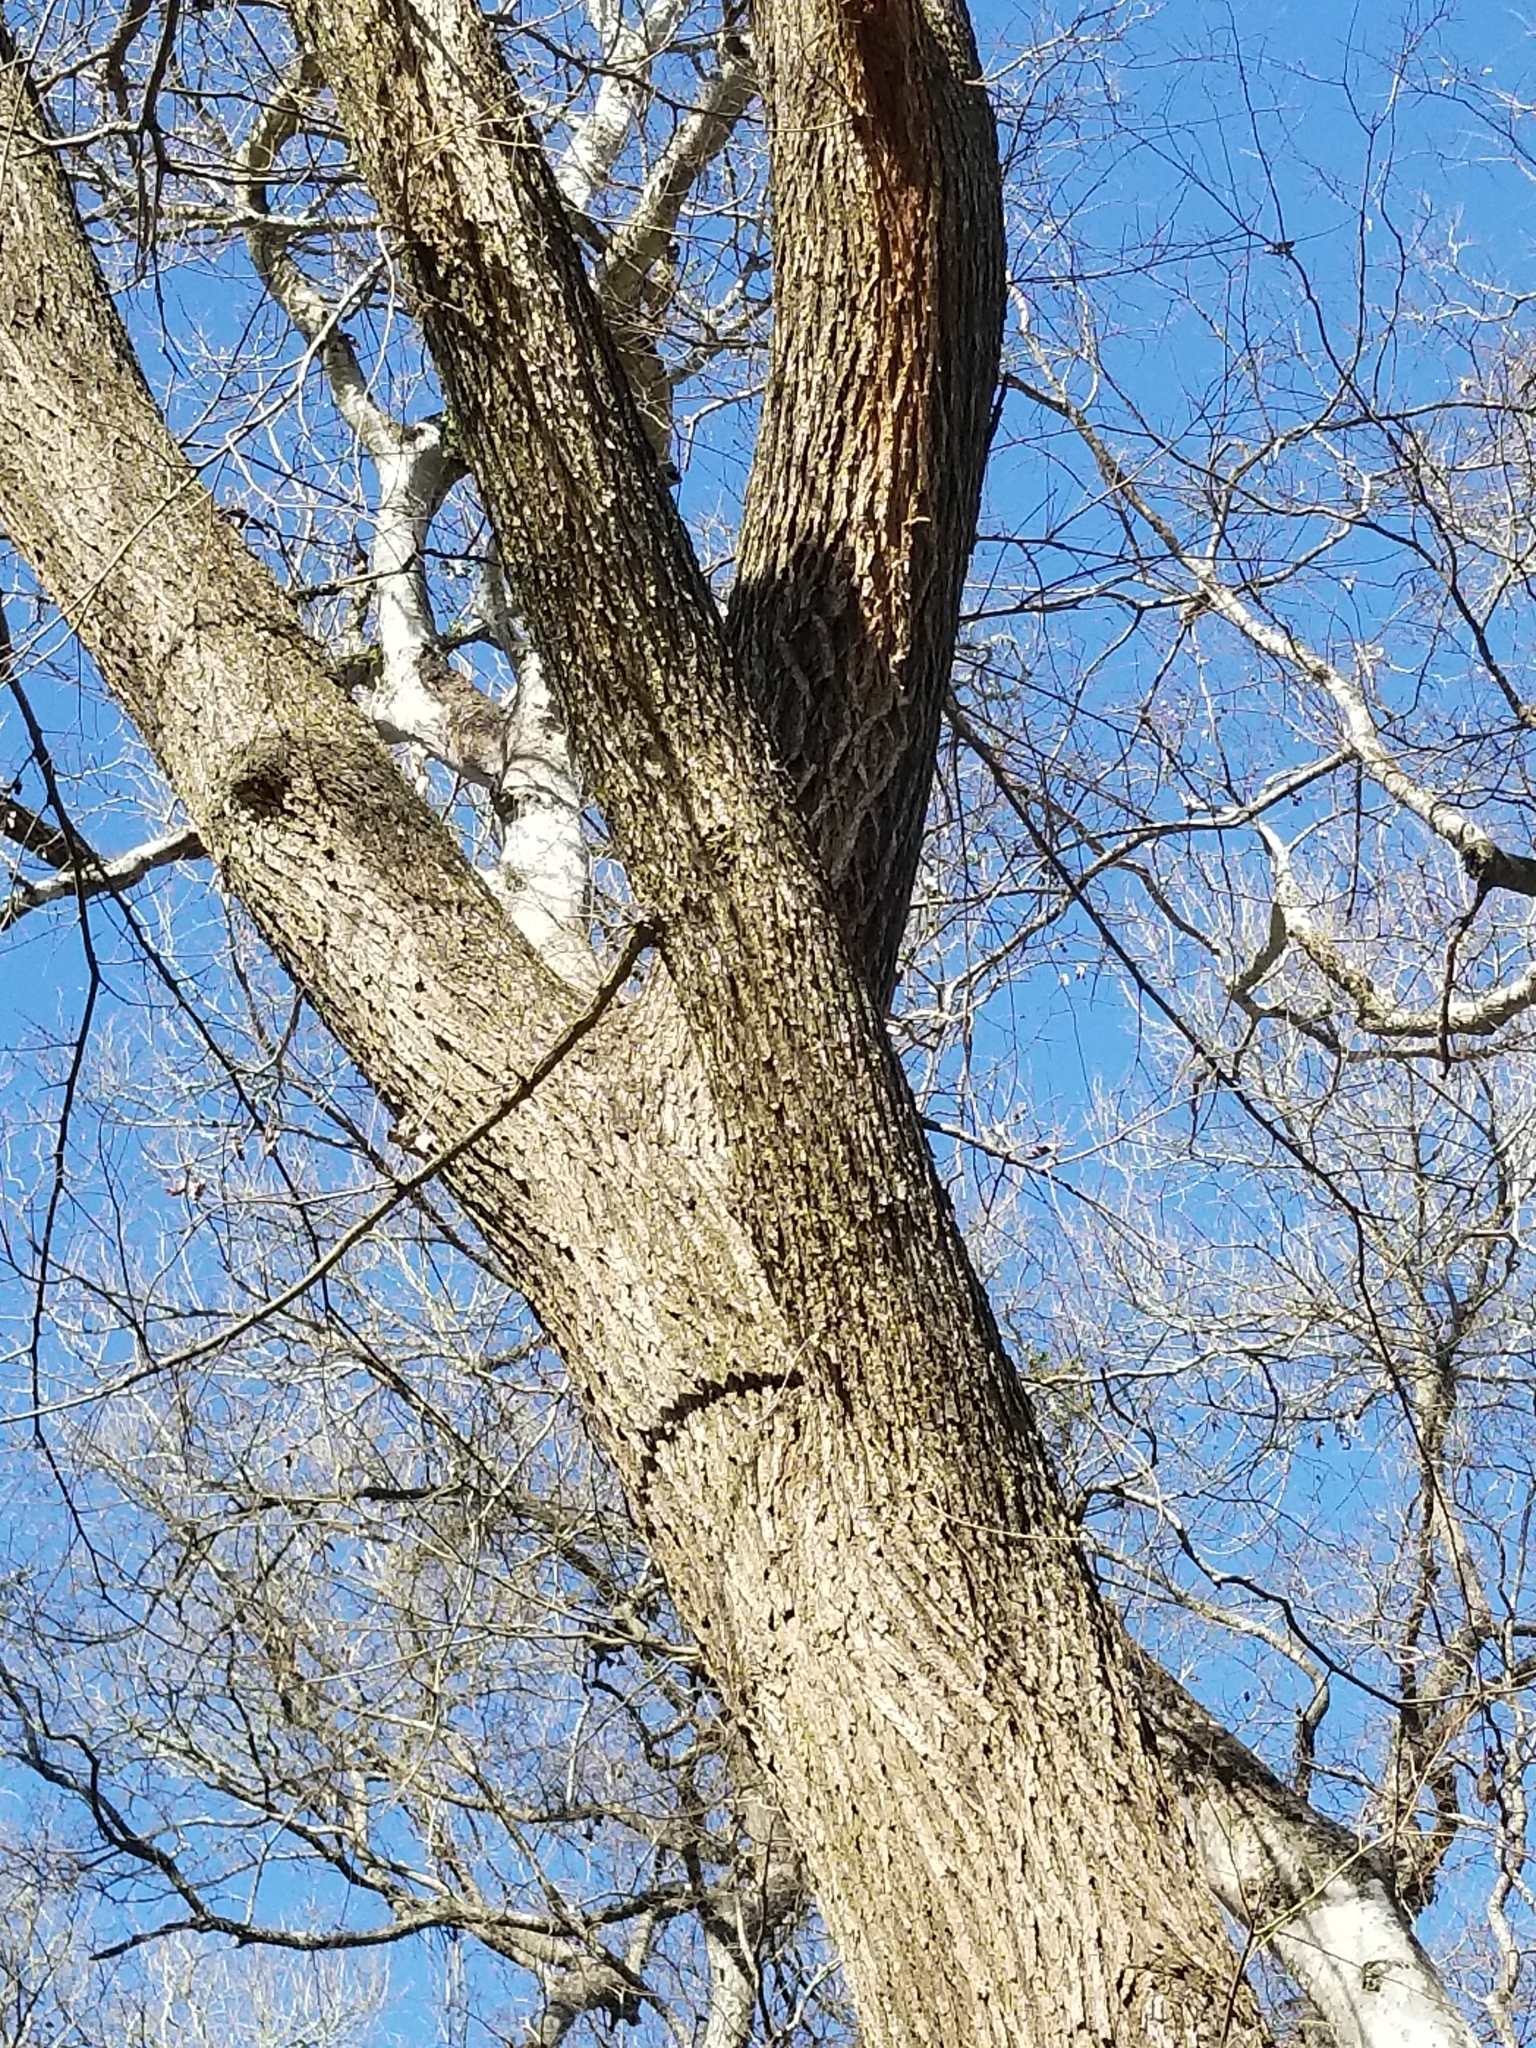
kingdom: Plantae
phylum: Tracheophyta
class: Magnoliopsida
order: Rosales
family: Ulmaceae
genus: Ulmus
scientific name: Ulmus americana
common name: American elm
